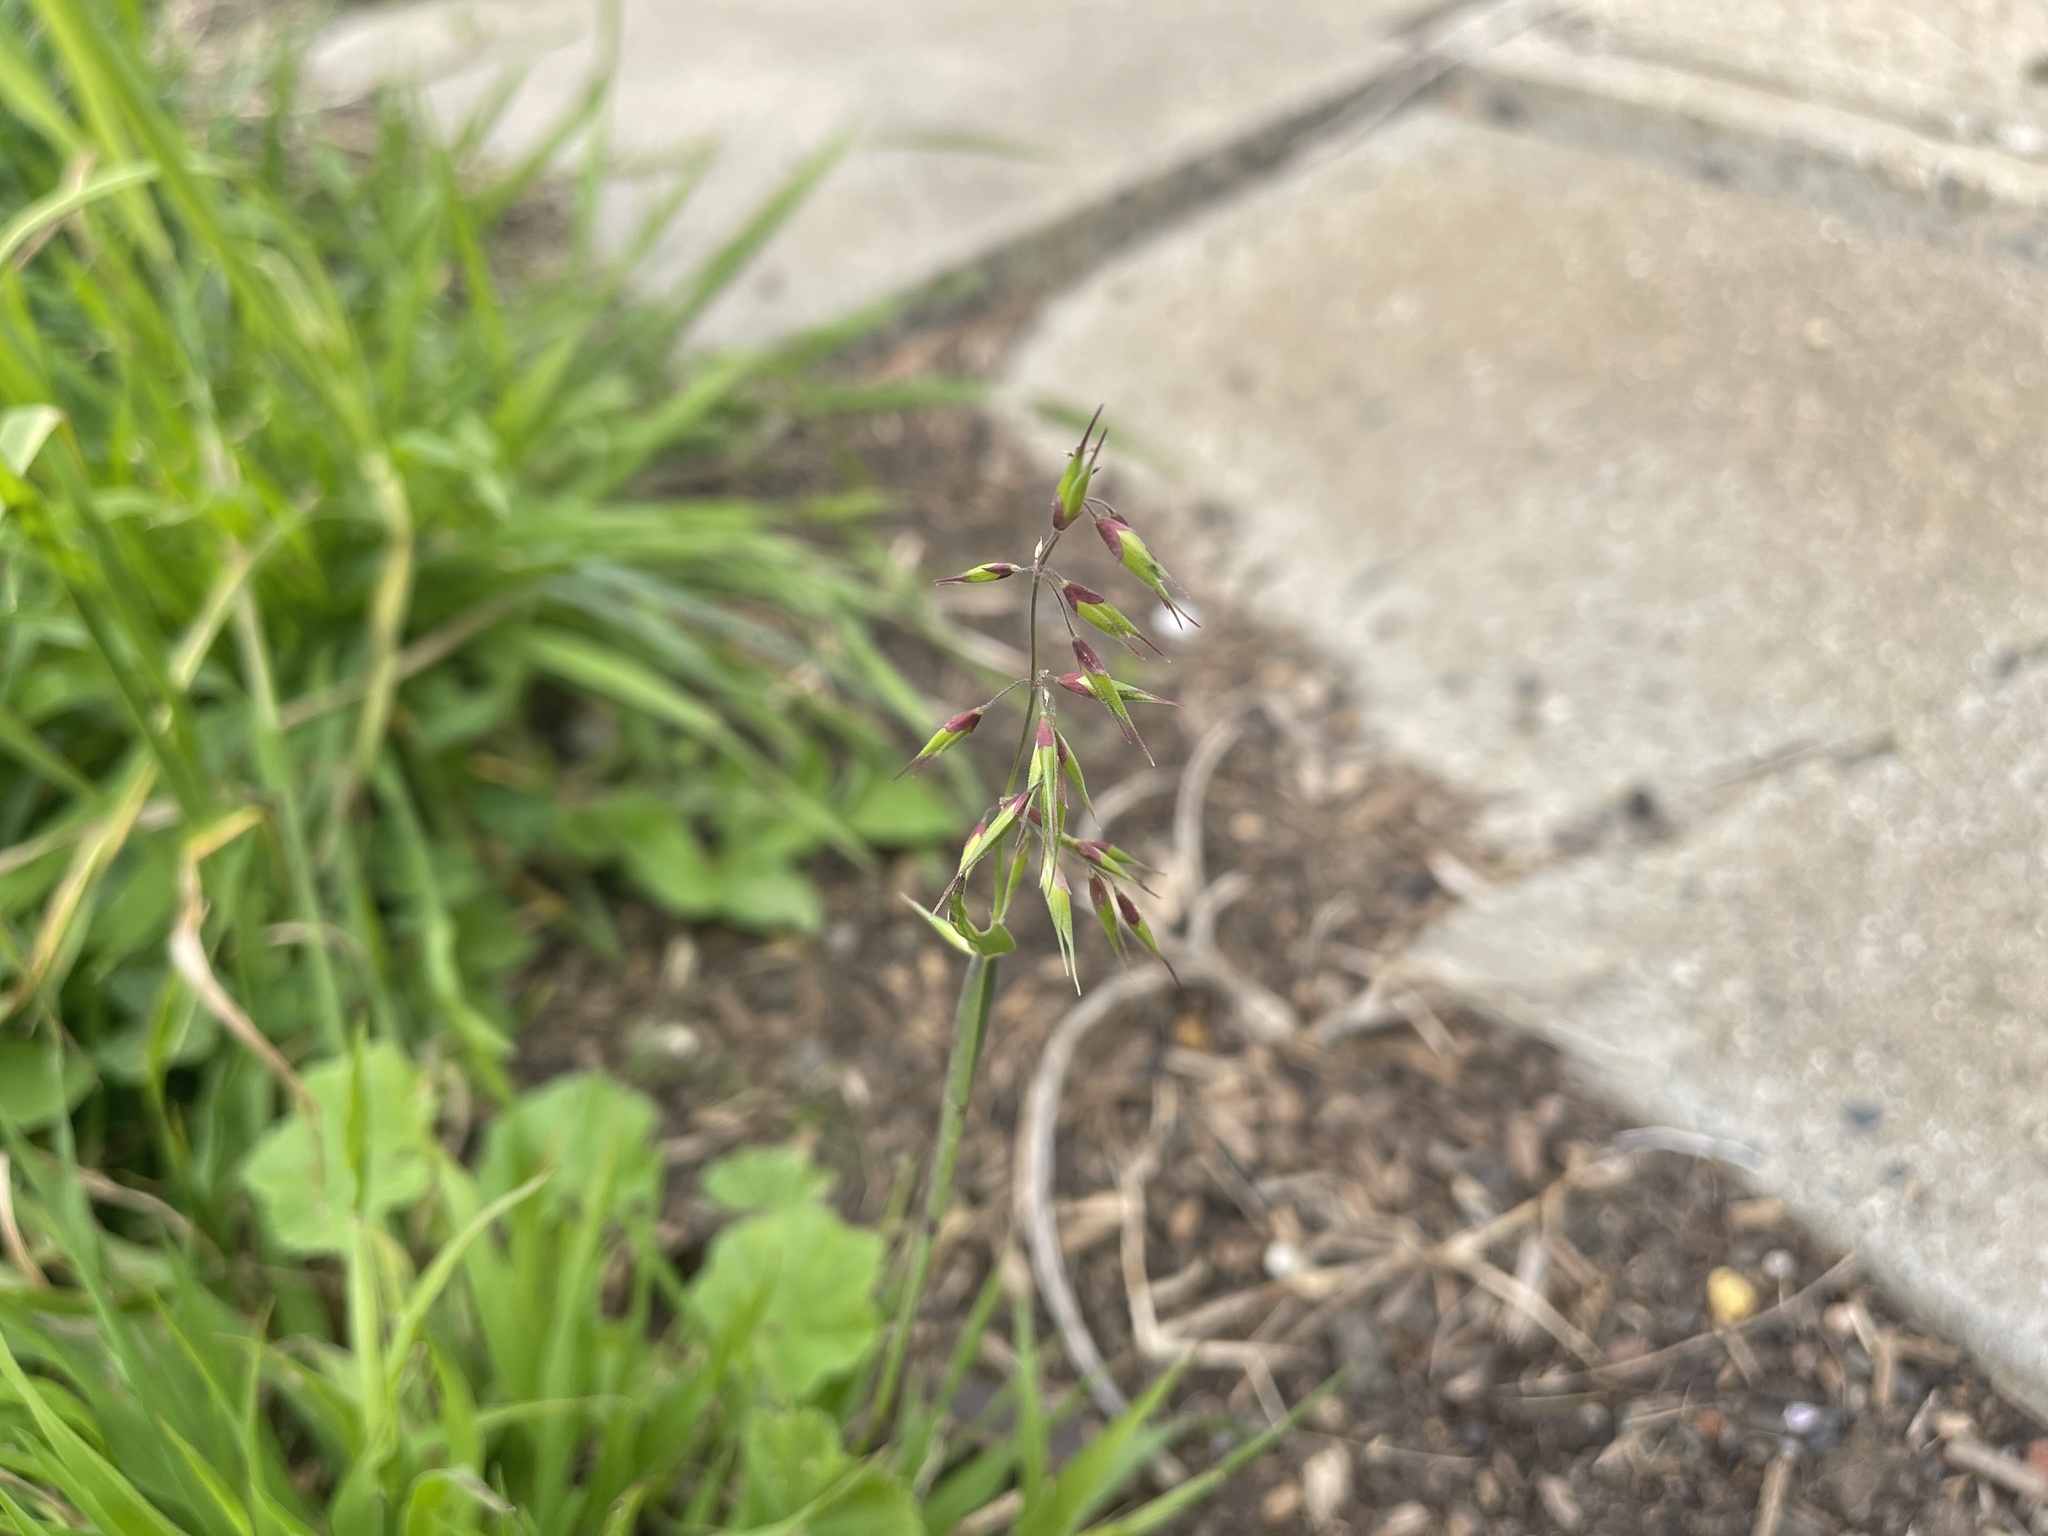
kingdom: Plantae
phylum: Tracheophyta
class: Liliopsida
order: Poales
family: Poaceae
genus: Ehrharta
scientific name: Ehrharta longiflora
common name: Longflowered veldtgrass
